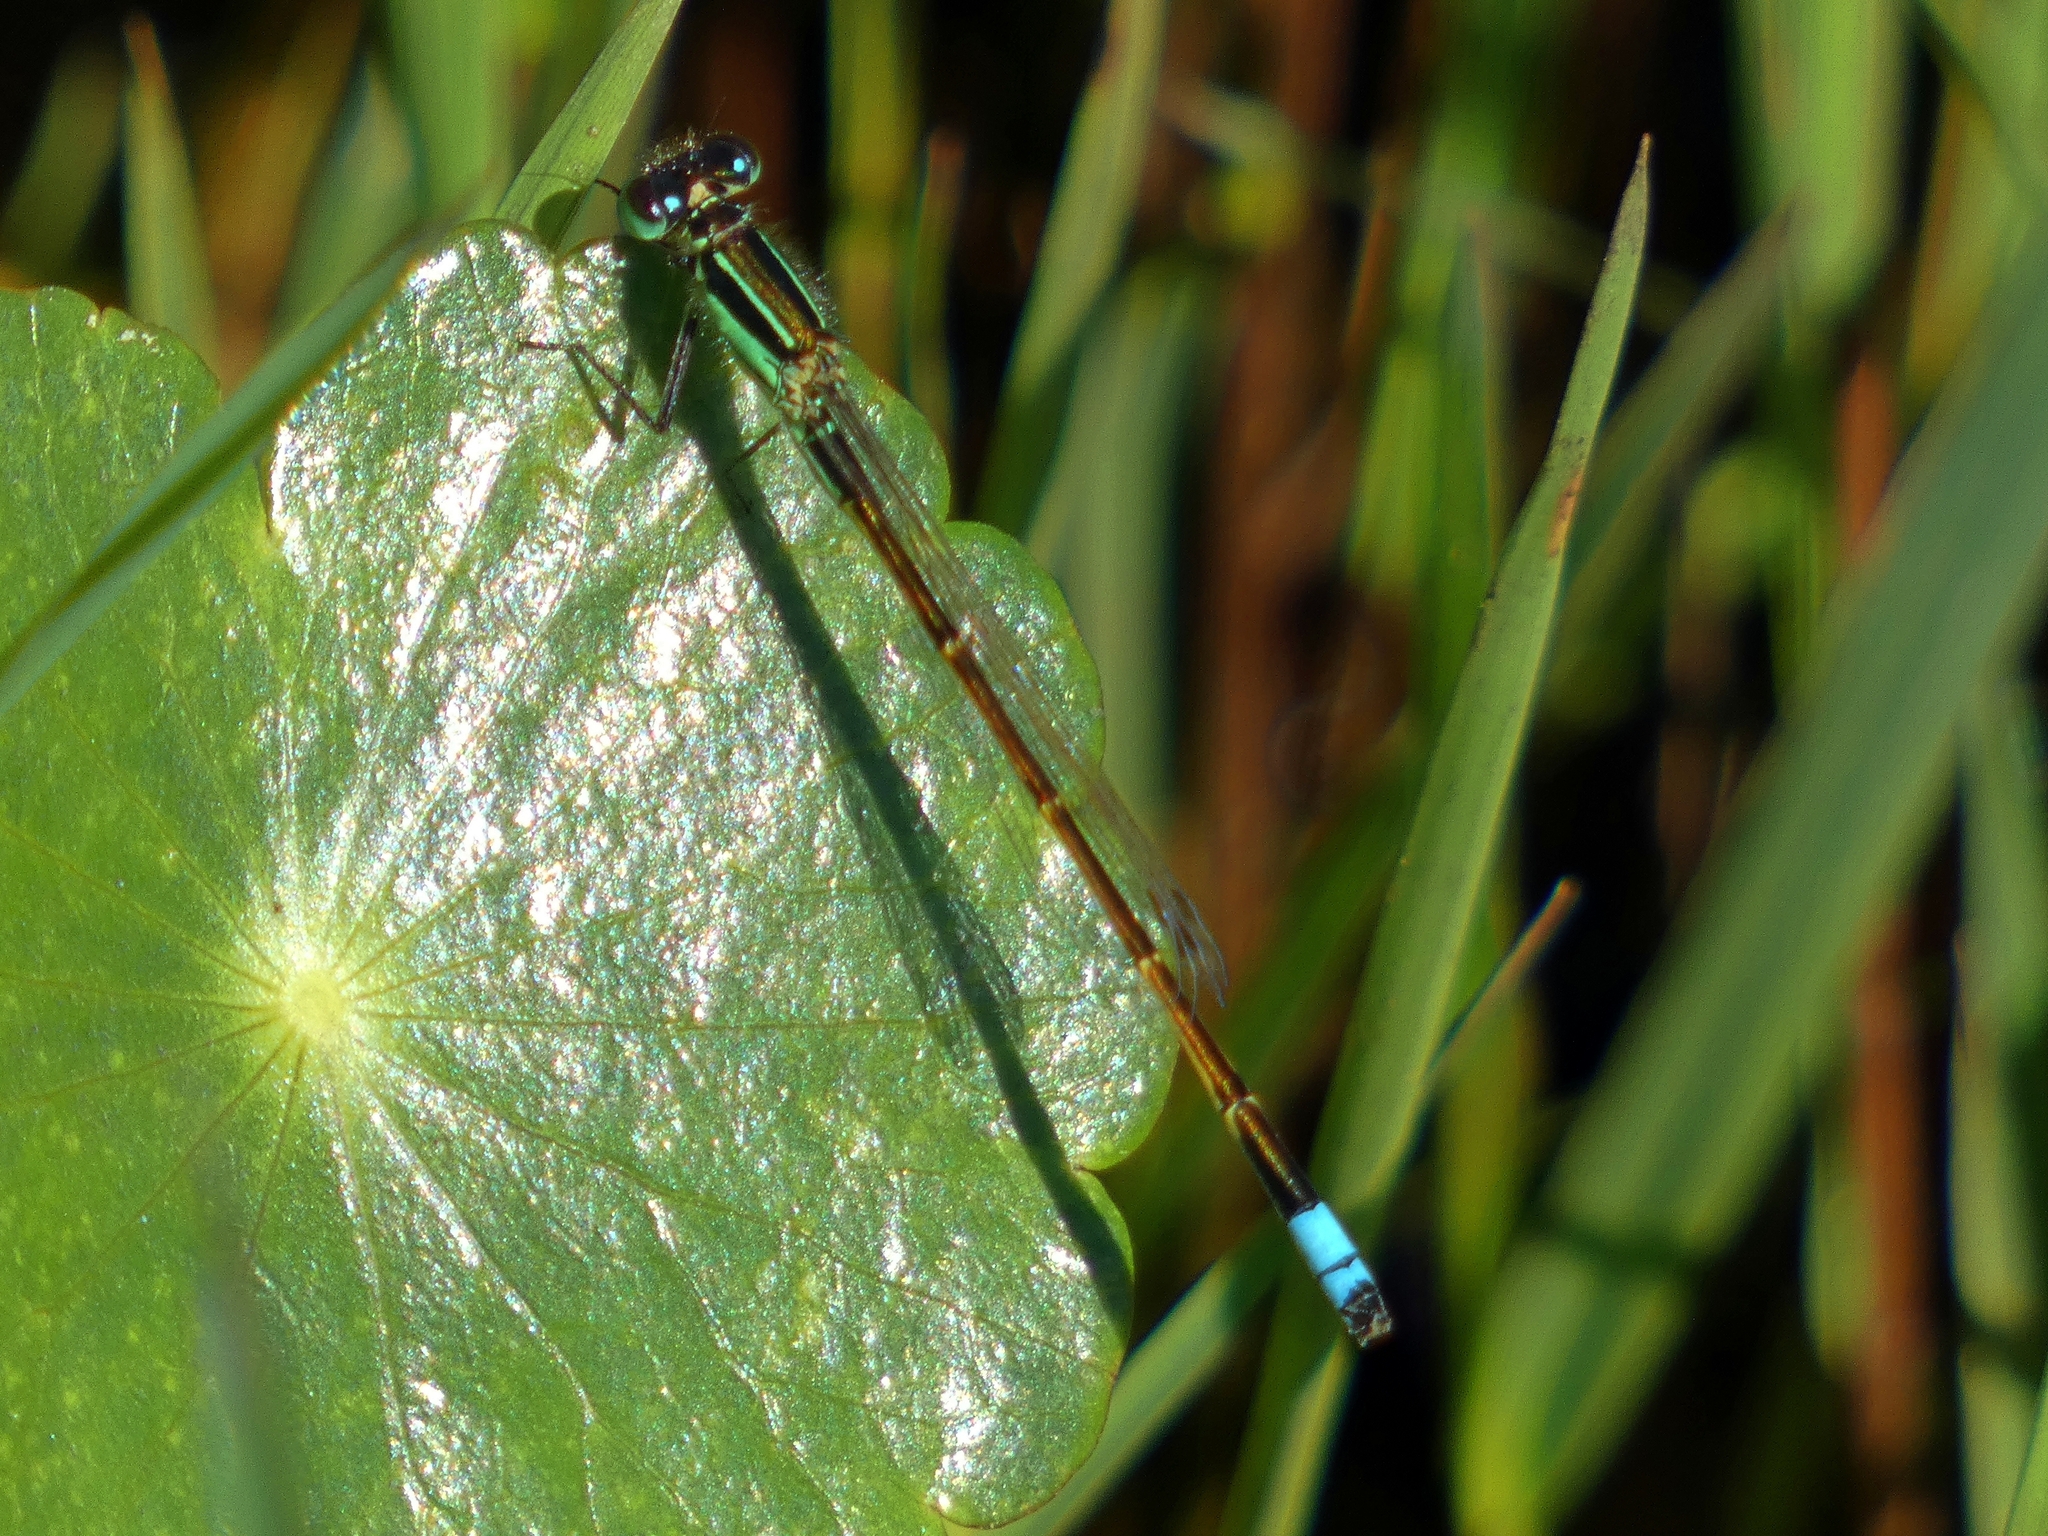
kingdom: Animalia
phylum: Arthropoda
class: Insecta
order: Odonata
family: Coenagrionidae
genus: Ischnura
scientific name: Ischnura ramburii
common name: Rambur's forktail
